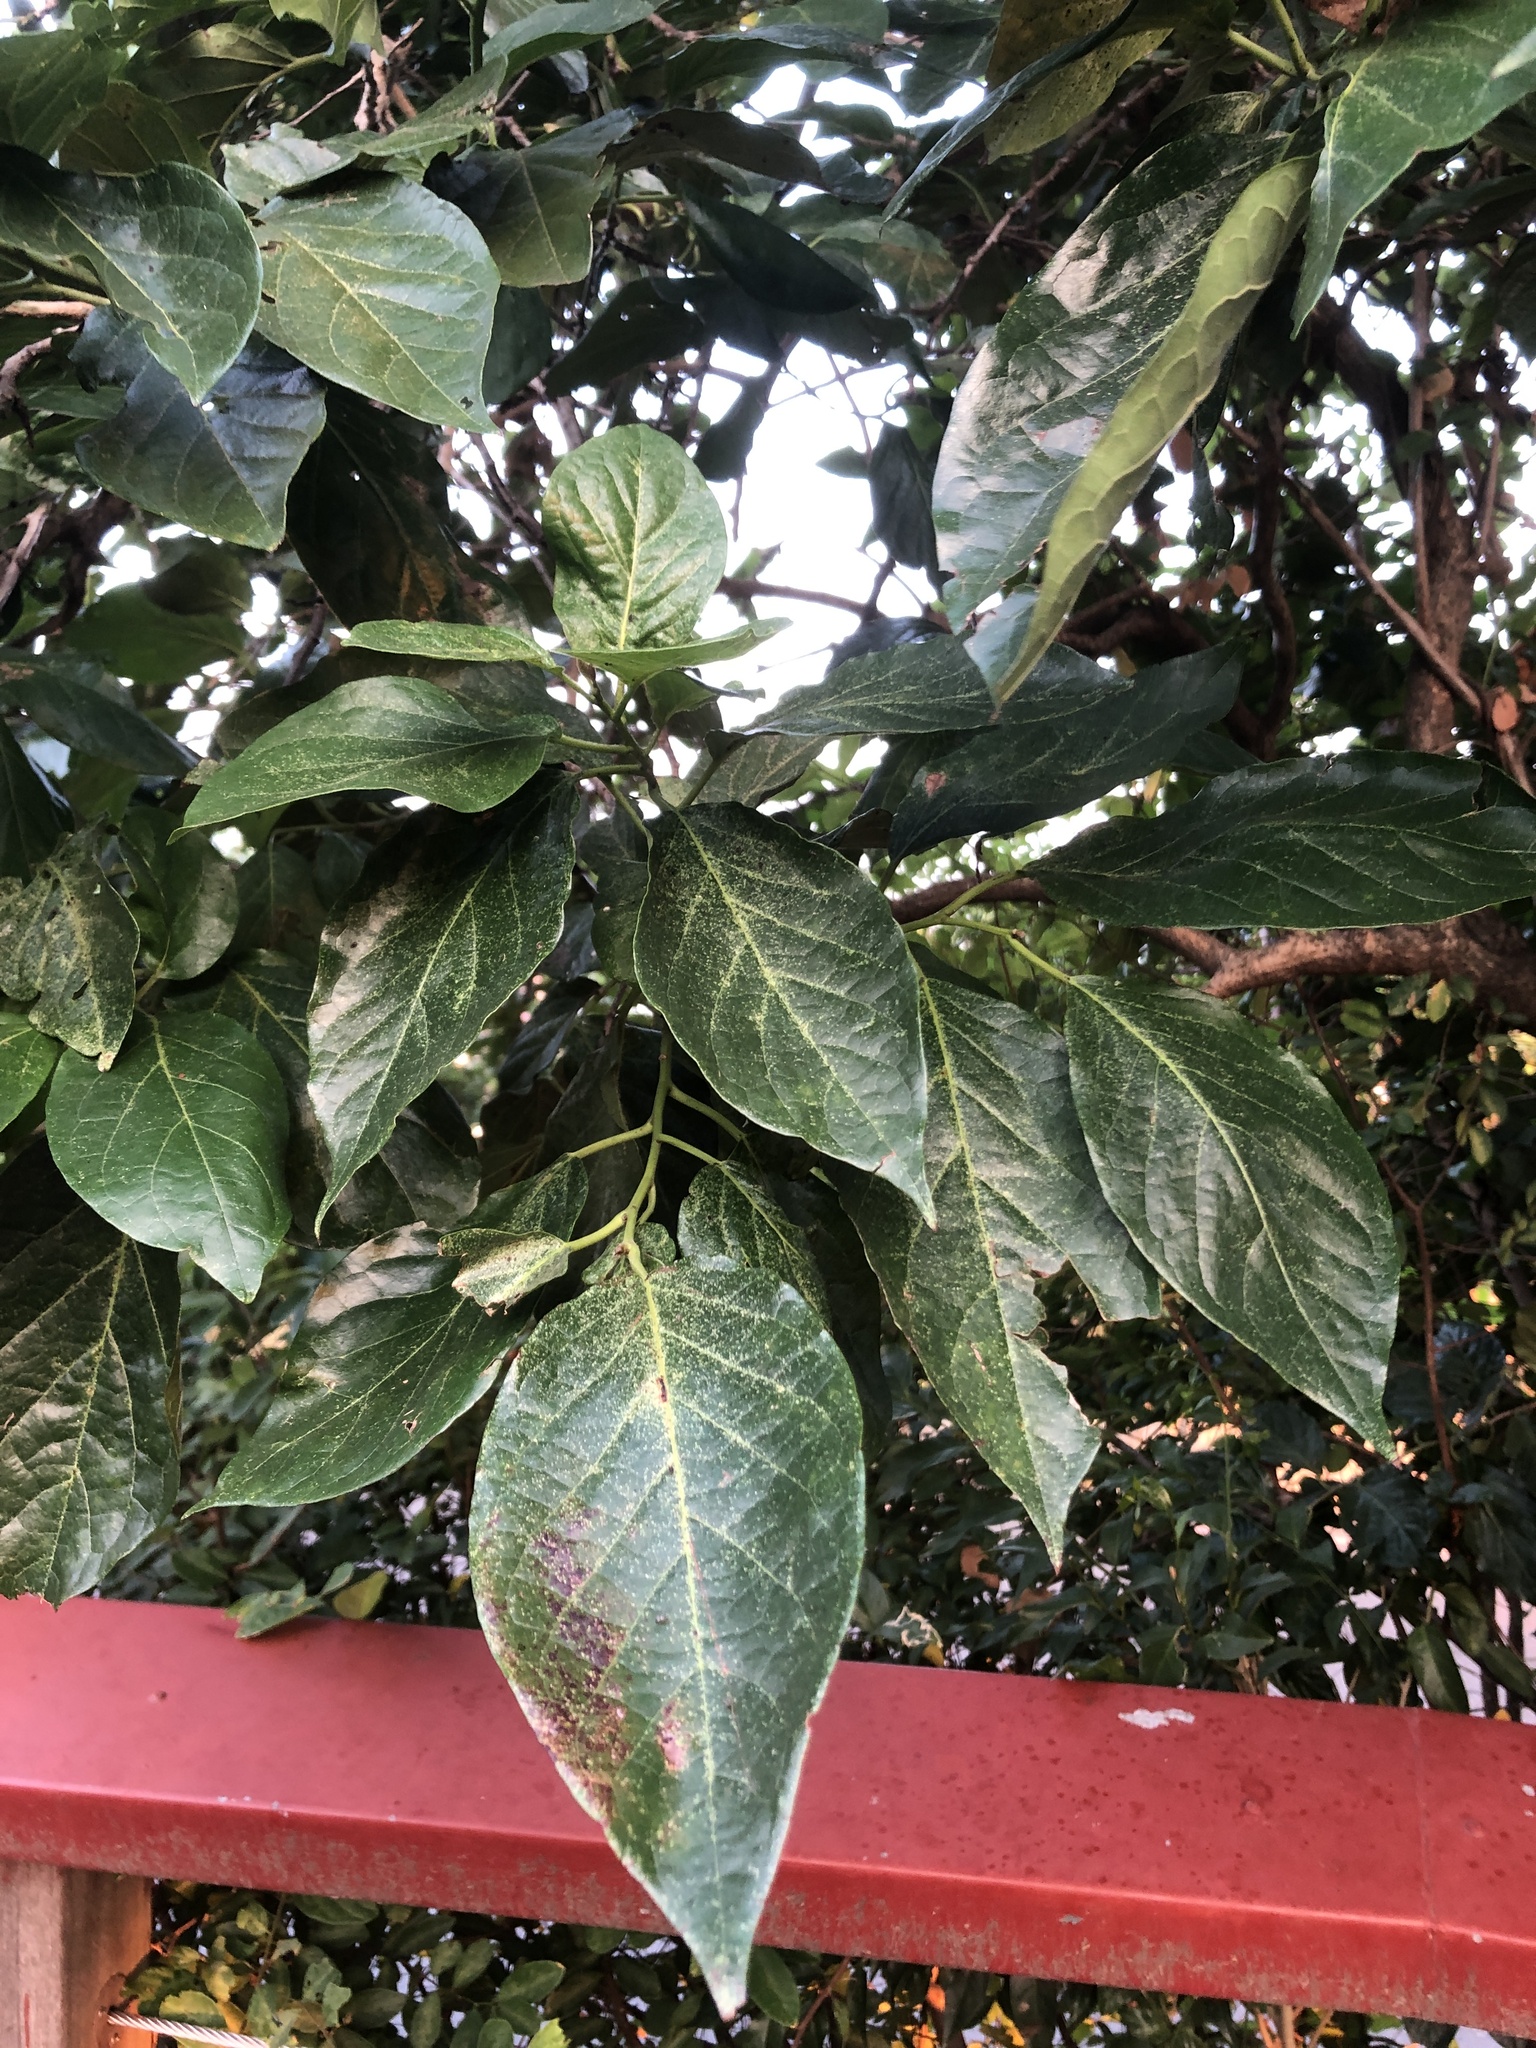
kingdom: Plantae
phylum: Tracheophyta
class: Magnoliopsida
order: Boraginales
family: Ehretiaceae
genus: Ehretia
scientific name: Ehretia resinosa
